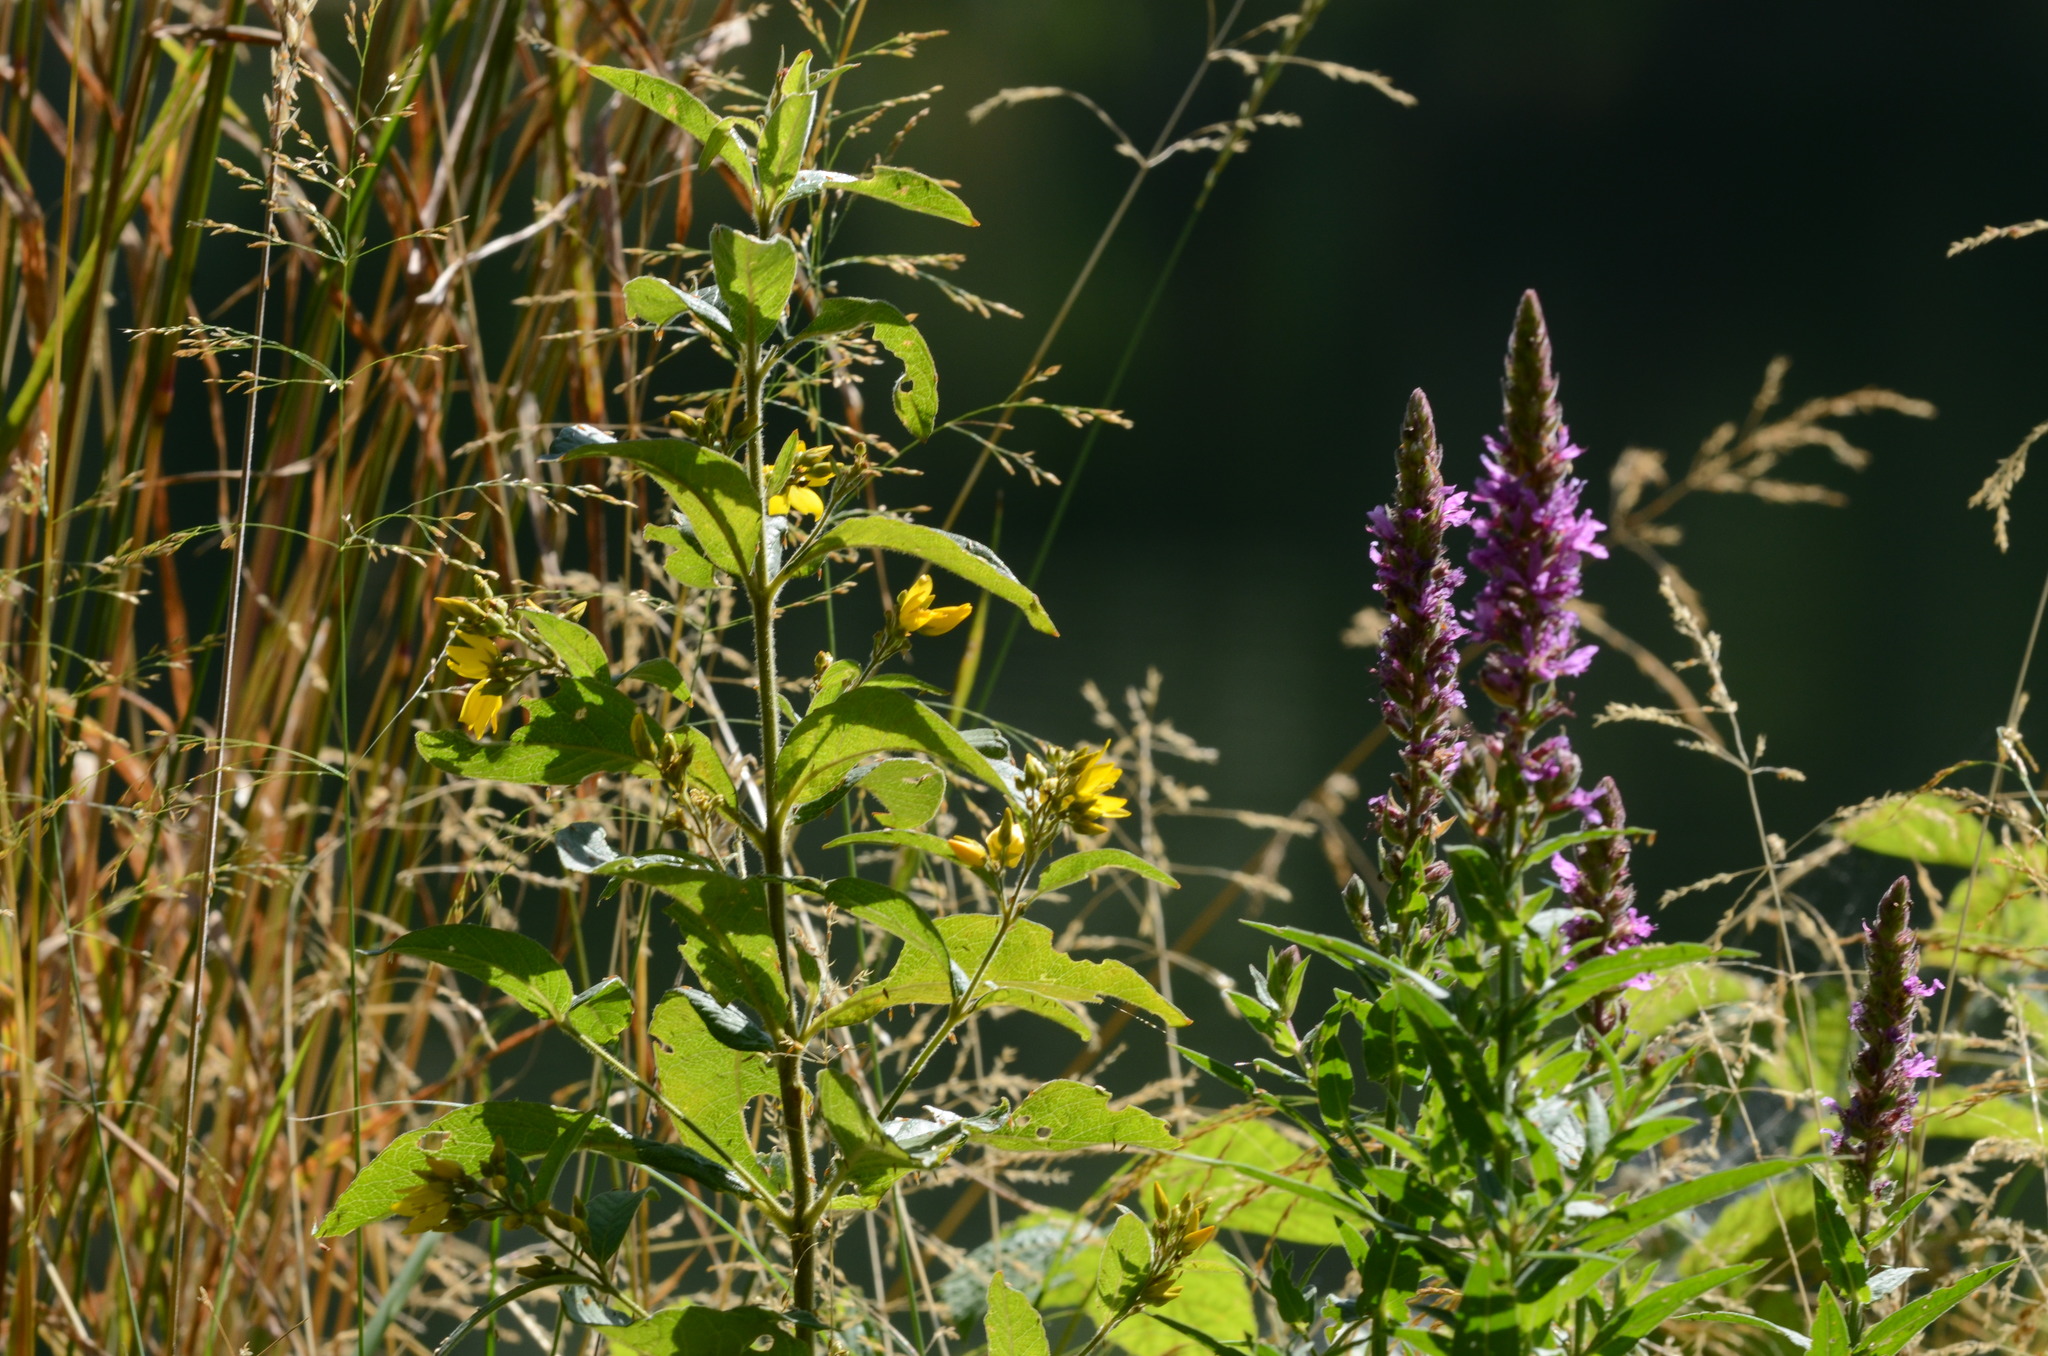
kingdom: Plantae
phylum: Tracheophyta
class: Magnoliopsida
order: Ericales
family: Primulaceae
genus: Lysimachia
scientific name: Lysimachia vulgaris
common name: Yellow loosestrife
